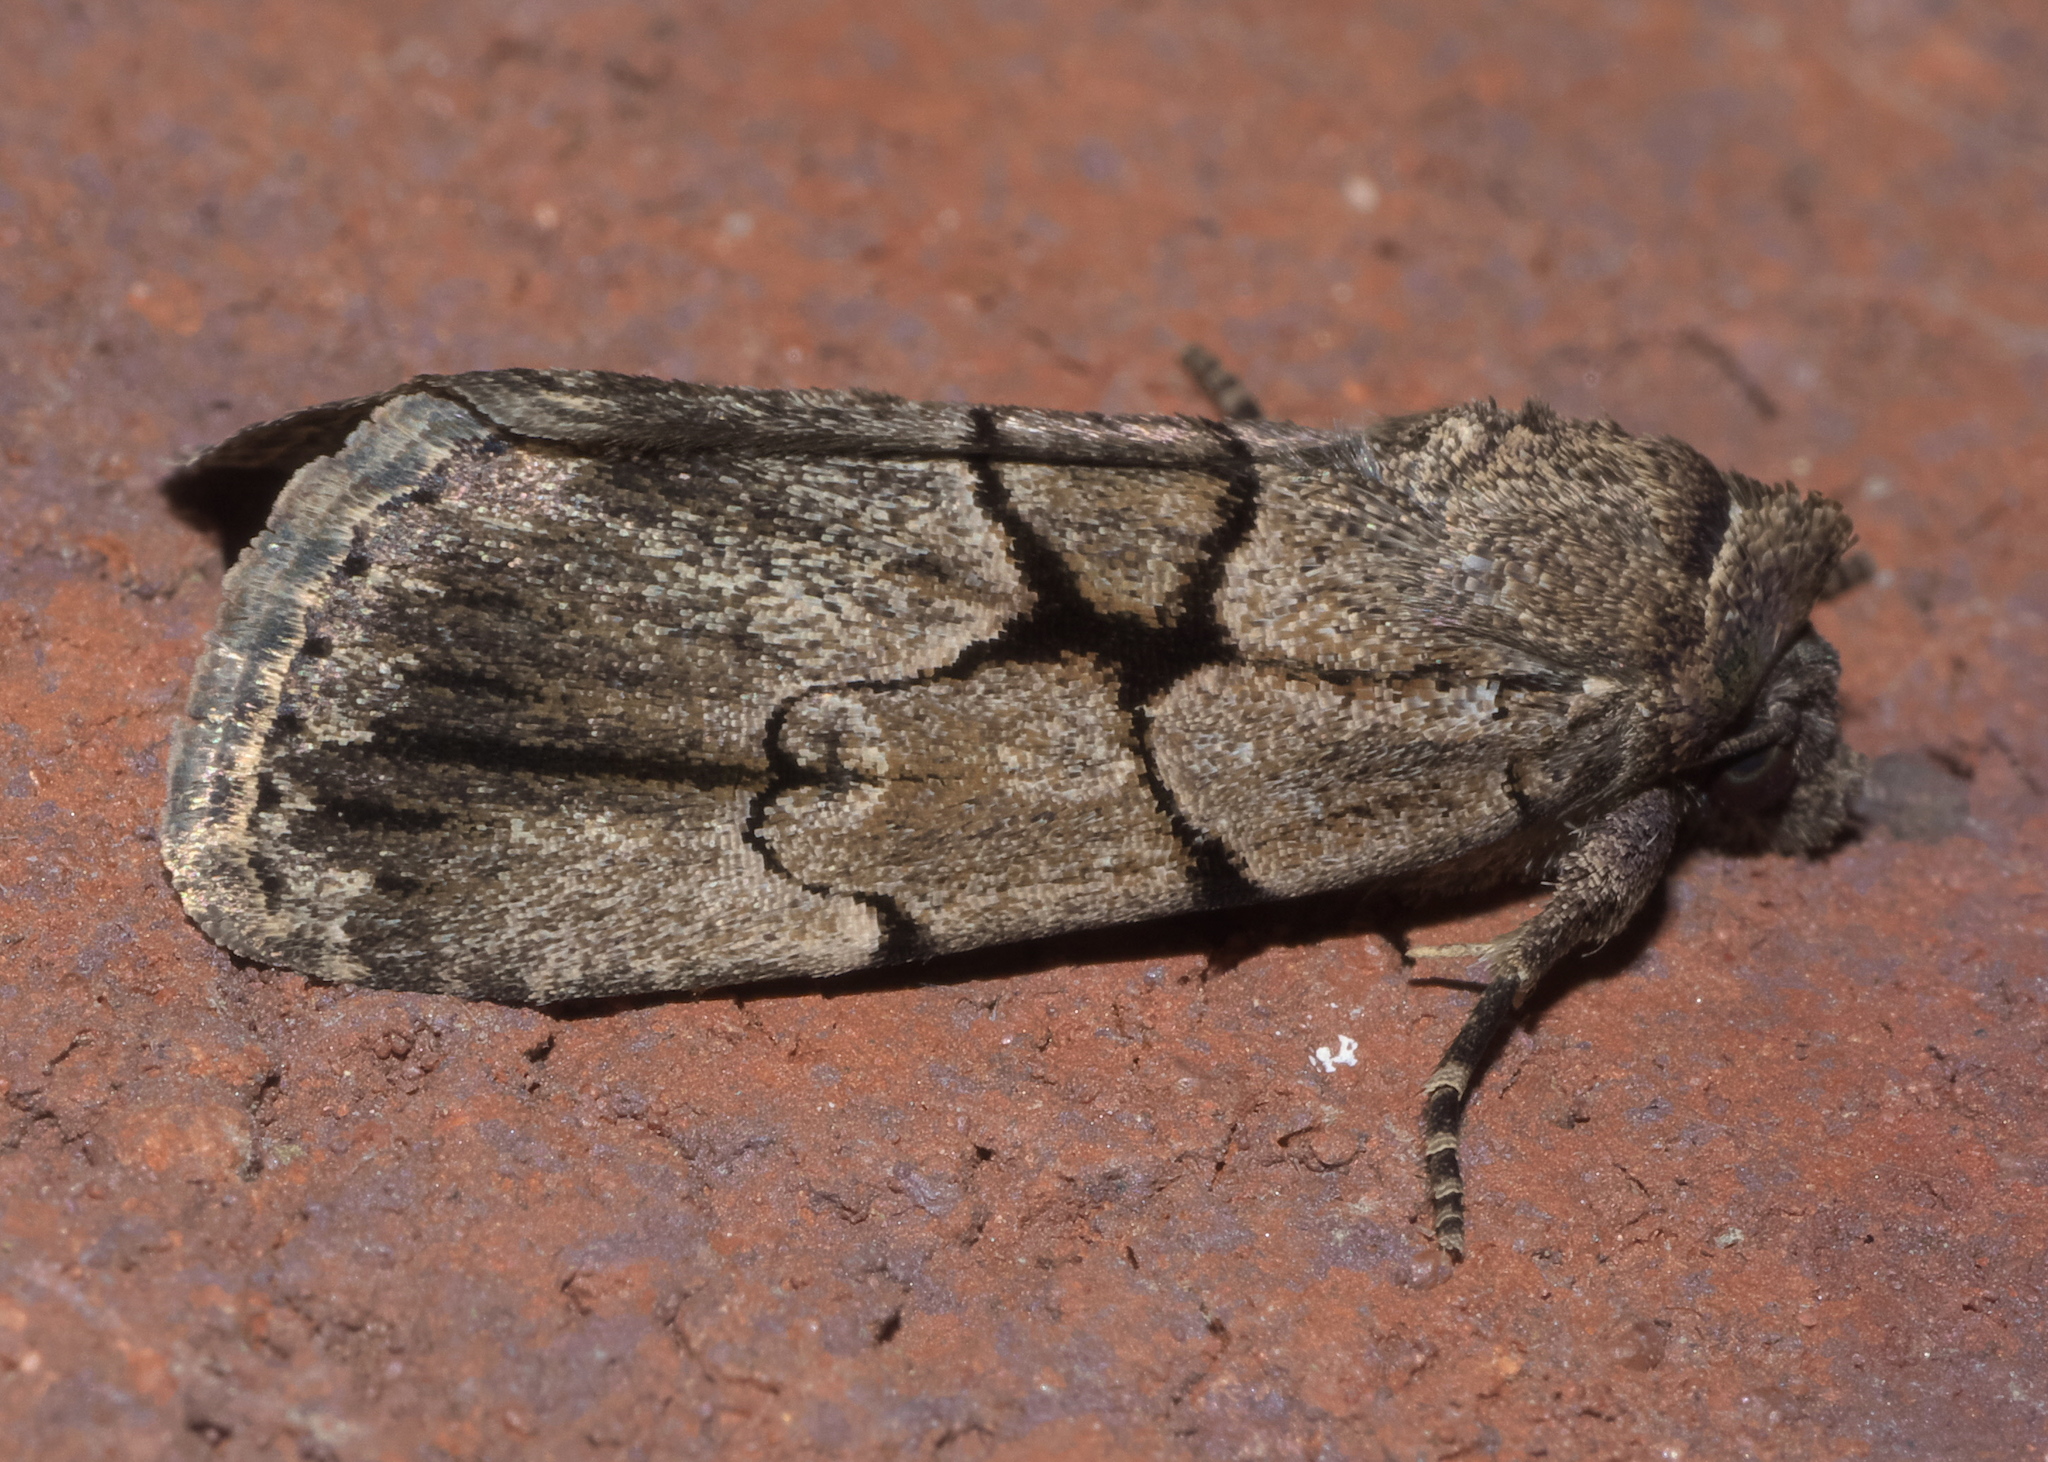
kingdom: Animalia
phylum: Arthropoda
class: Insecta
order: Lepidoptera
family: Noctuidae
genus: Sympistis
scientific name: Sympistis dinalda
